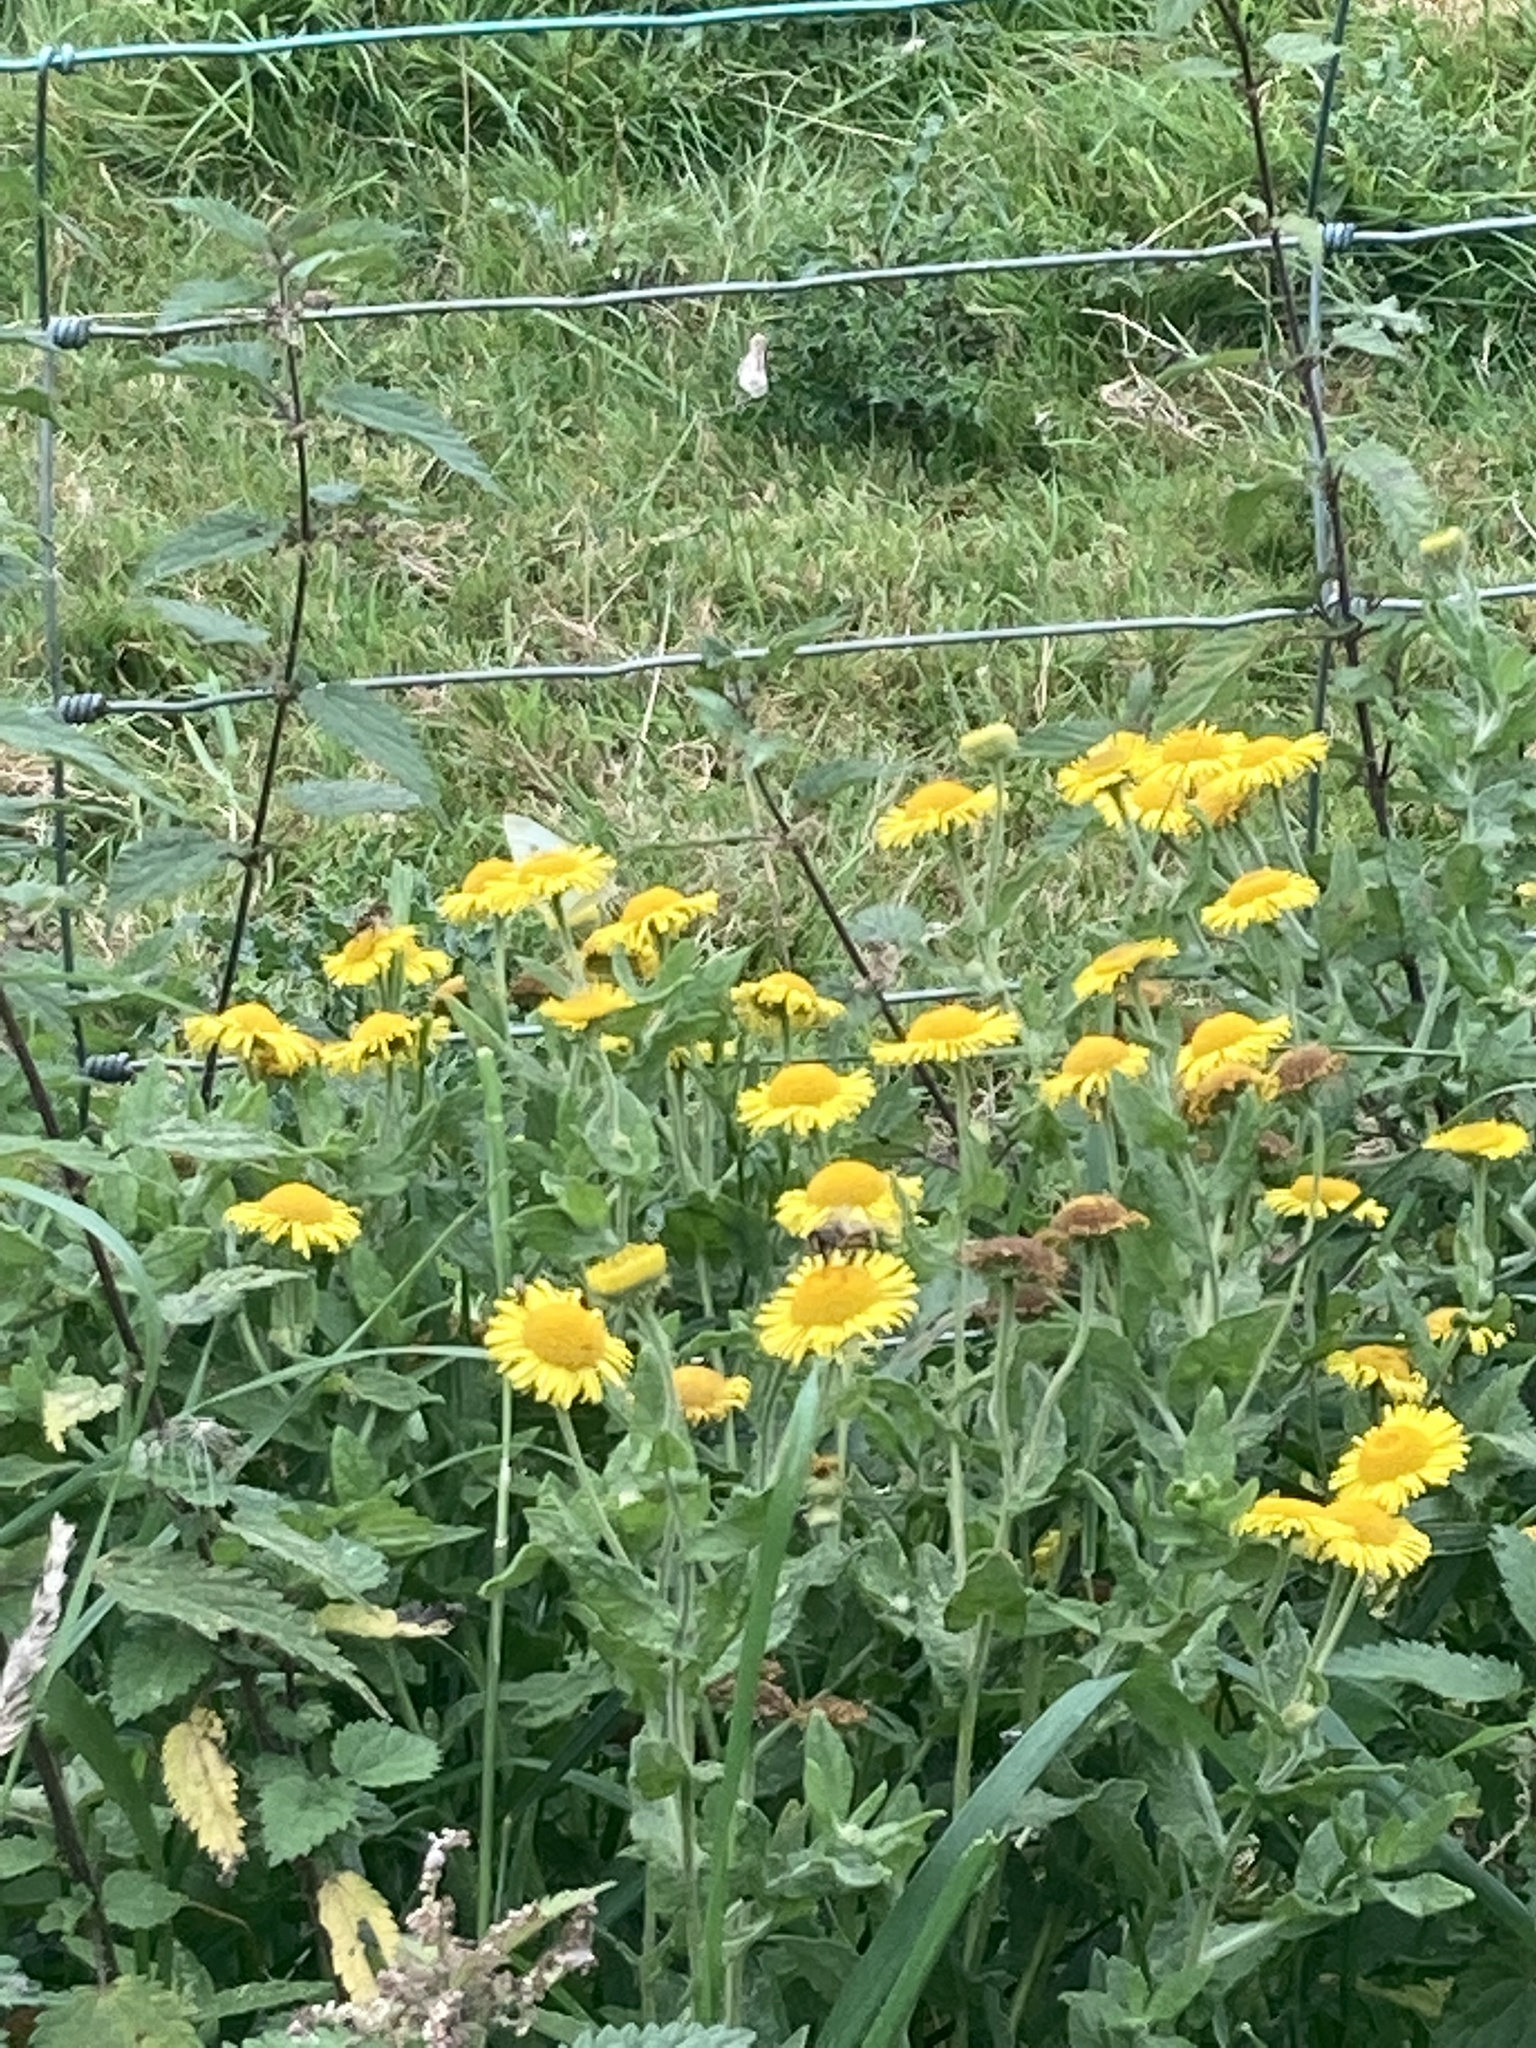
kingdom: Plantae
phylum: Tracheophyta
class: Magnoliopsida
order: Asterales
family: Asteraceae
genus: Pulicaria
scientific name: Pulicaria dysenterica
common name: Common fleabane
